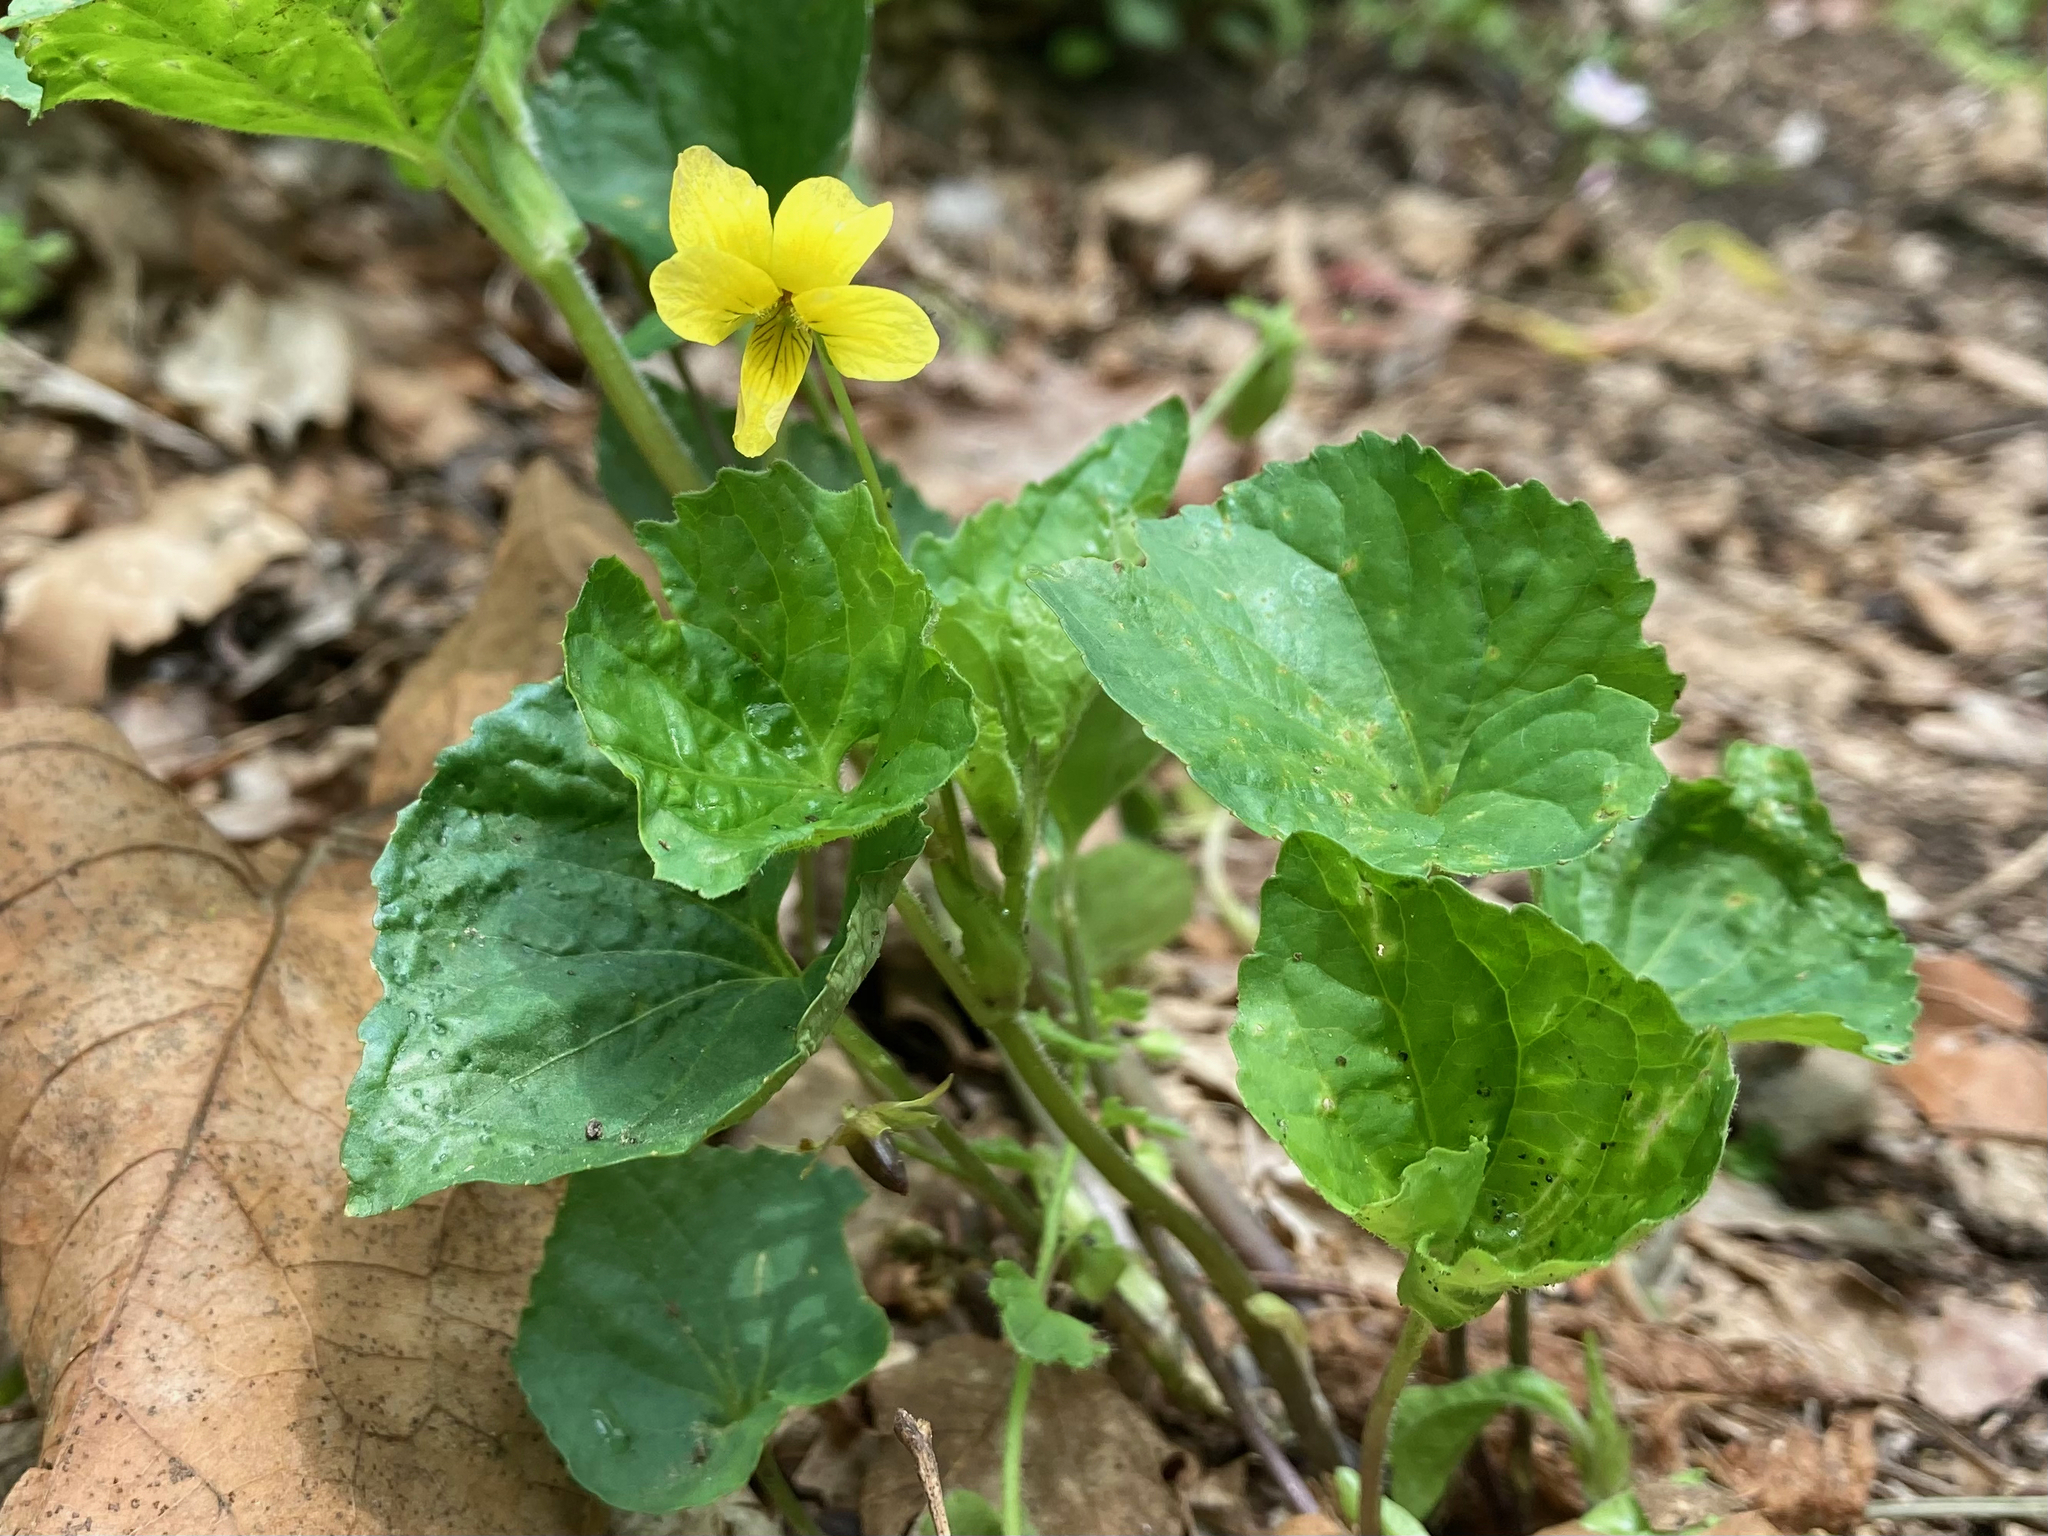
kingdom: Plantae
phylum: Tracheophyta
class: Magnoliopsida
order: Malpighiales
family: Violaceae
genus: Viola
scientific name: Viola eriocarpa
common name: Smooth yellow violet
